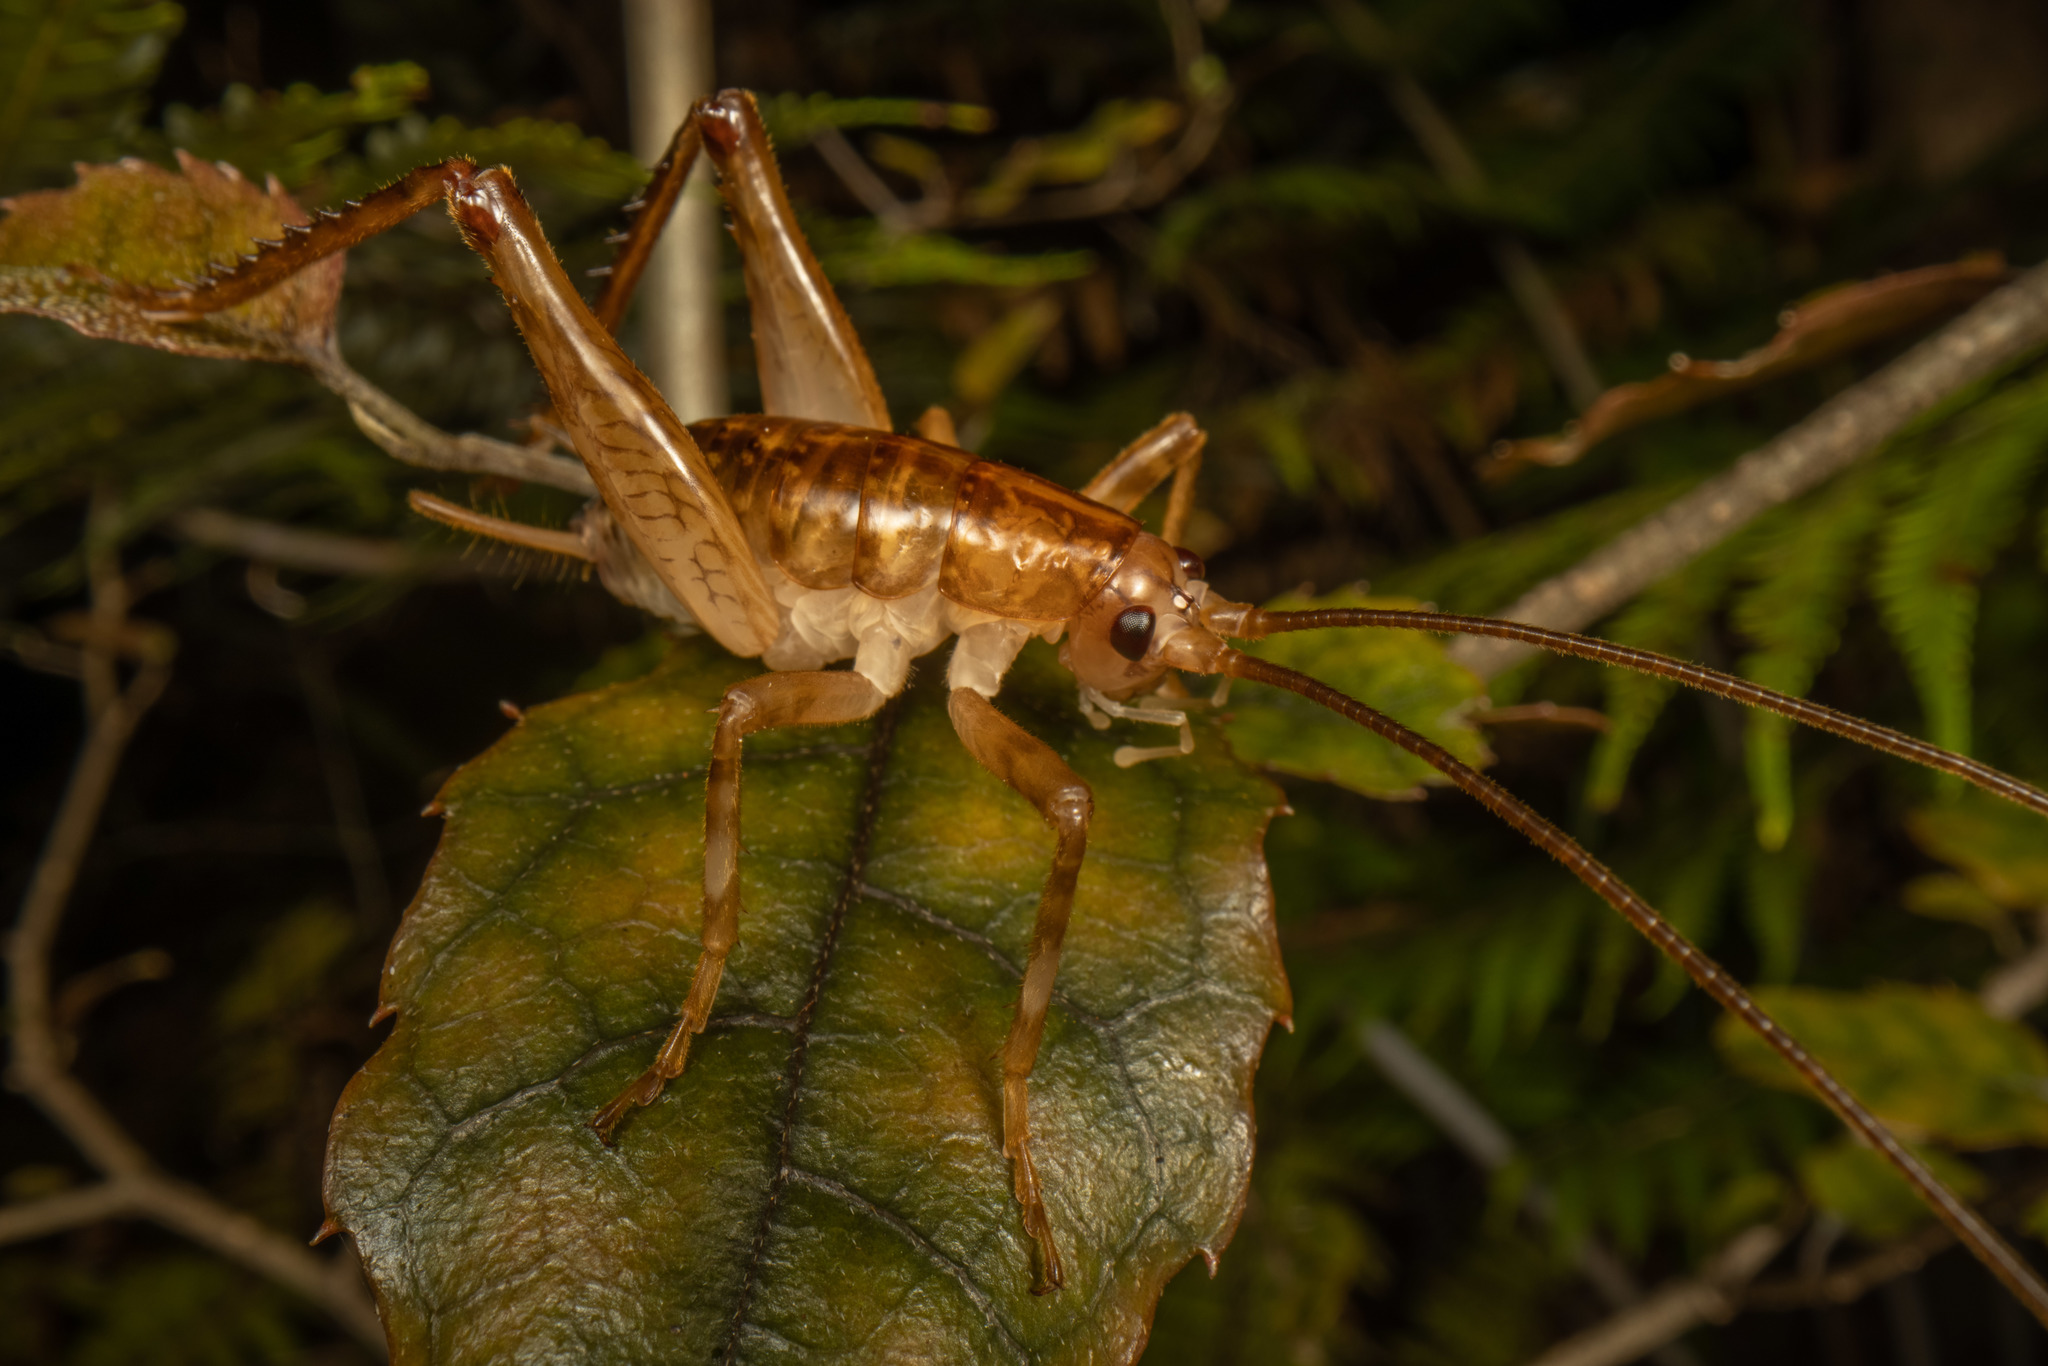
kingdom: Animalia
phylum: Arthropoda
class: Insecta
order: Orthoptera
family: Rhaphidophoridae
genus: Talitropsis
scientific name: Talitropsis sedilloti
